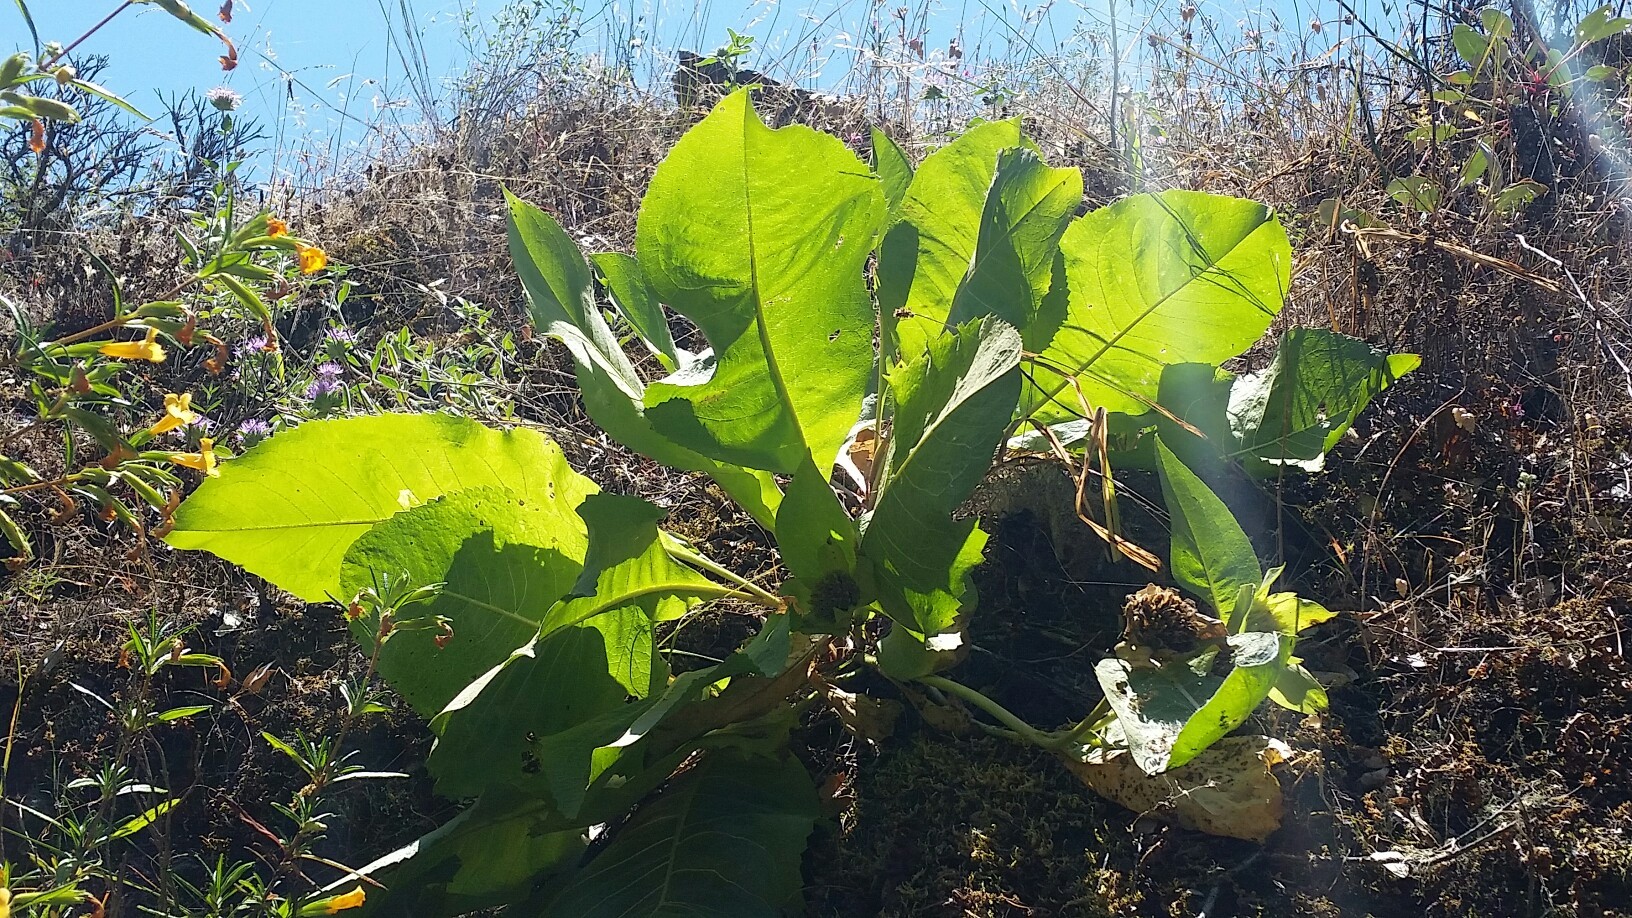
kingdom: Plantae
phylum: Tracheophyta
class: Magnoliopsida
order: Asterales
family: Asteraceae
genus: Wyethia
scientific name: Wyethia glabra
